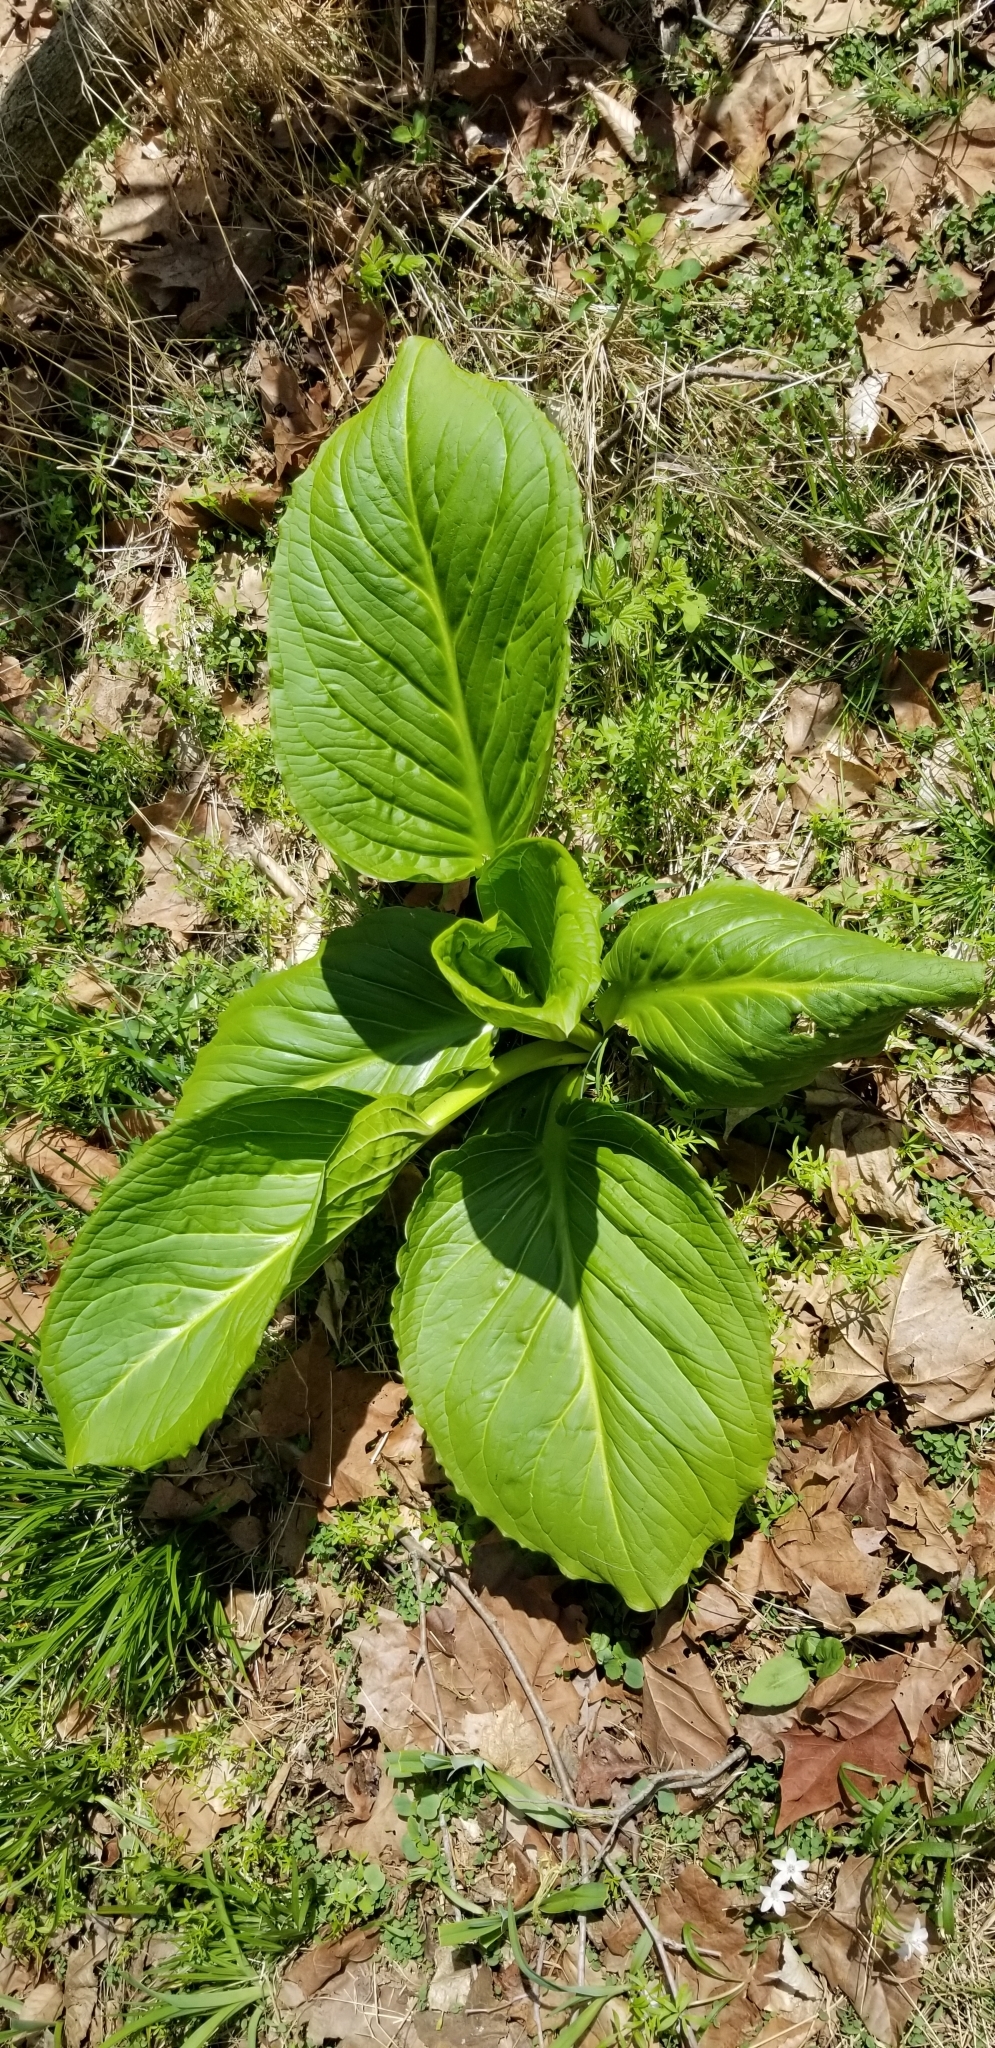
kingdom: Plantae
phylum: Tracheophyta
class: Liliopsida
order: Alismatales
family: Araceae
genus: Symplocarpus
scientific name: Symplocarpus foetidus
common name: Eastern skunk cabbage
